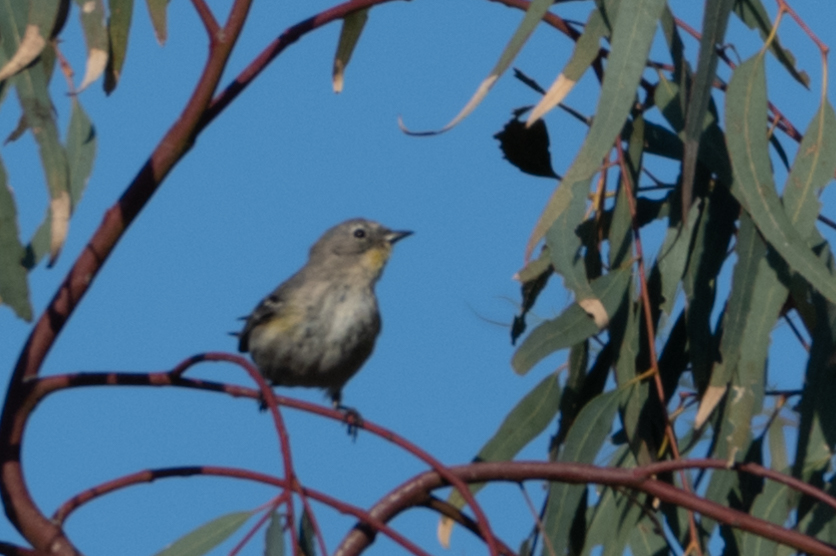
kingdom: Animalia
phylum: Chordata
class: Aves
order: Passeriformes
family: Parulidae
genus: Setophaga
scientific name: Setophaga coronata
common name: Myrtle warbler
